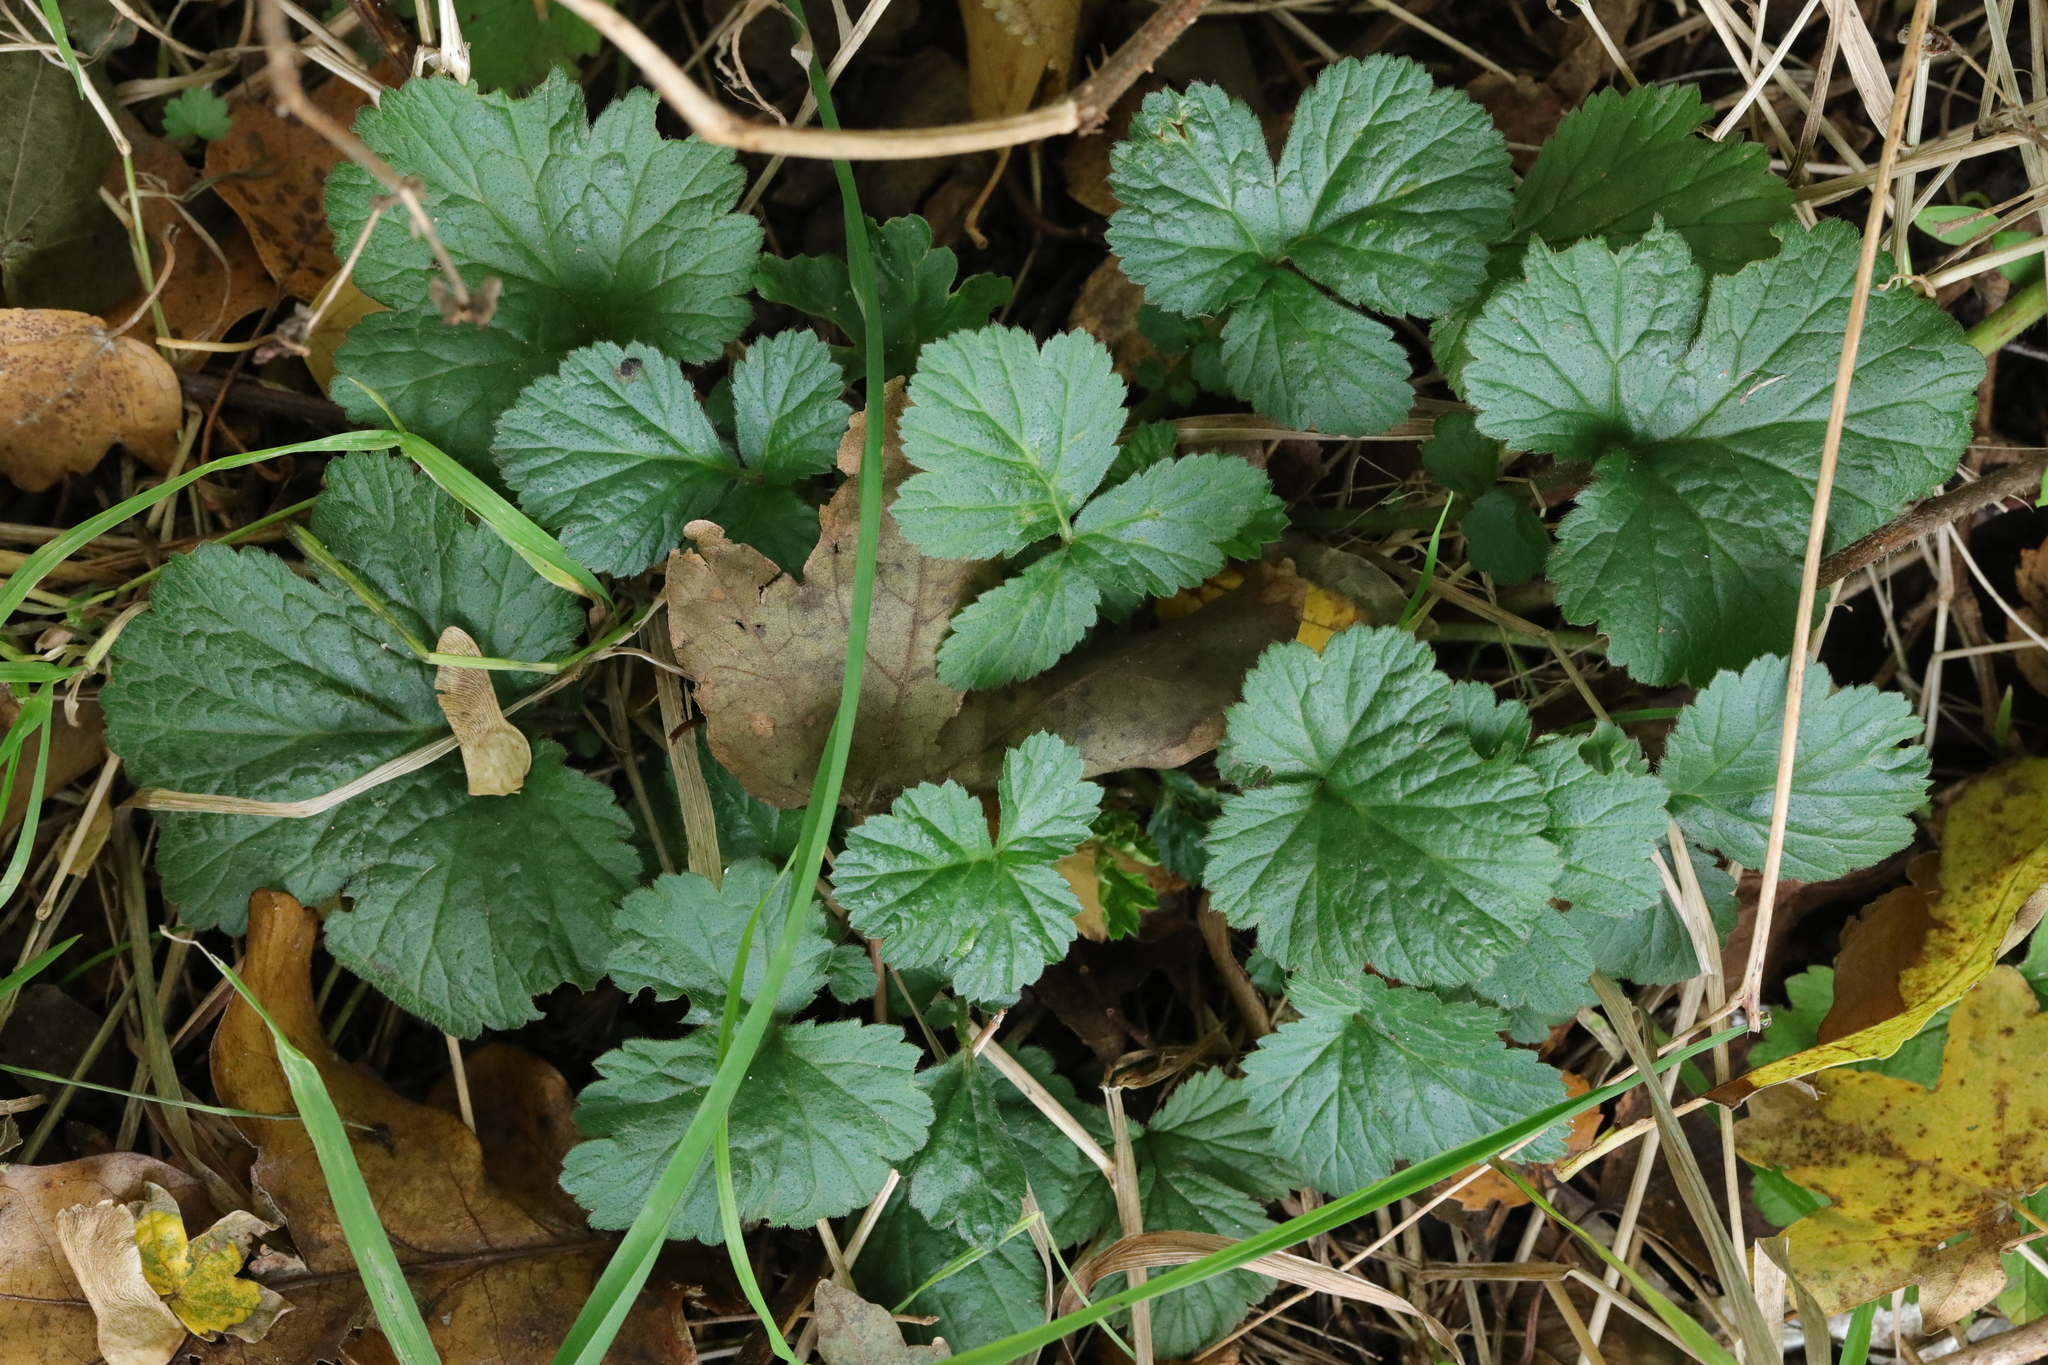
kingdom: Plantae
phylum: Tracheophyta
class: Magnoliopsida
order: Rosales
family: Rosaceae
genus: Geum
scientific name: Geum urbanum
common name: Wood avens
